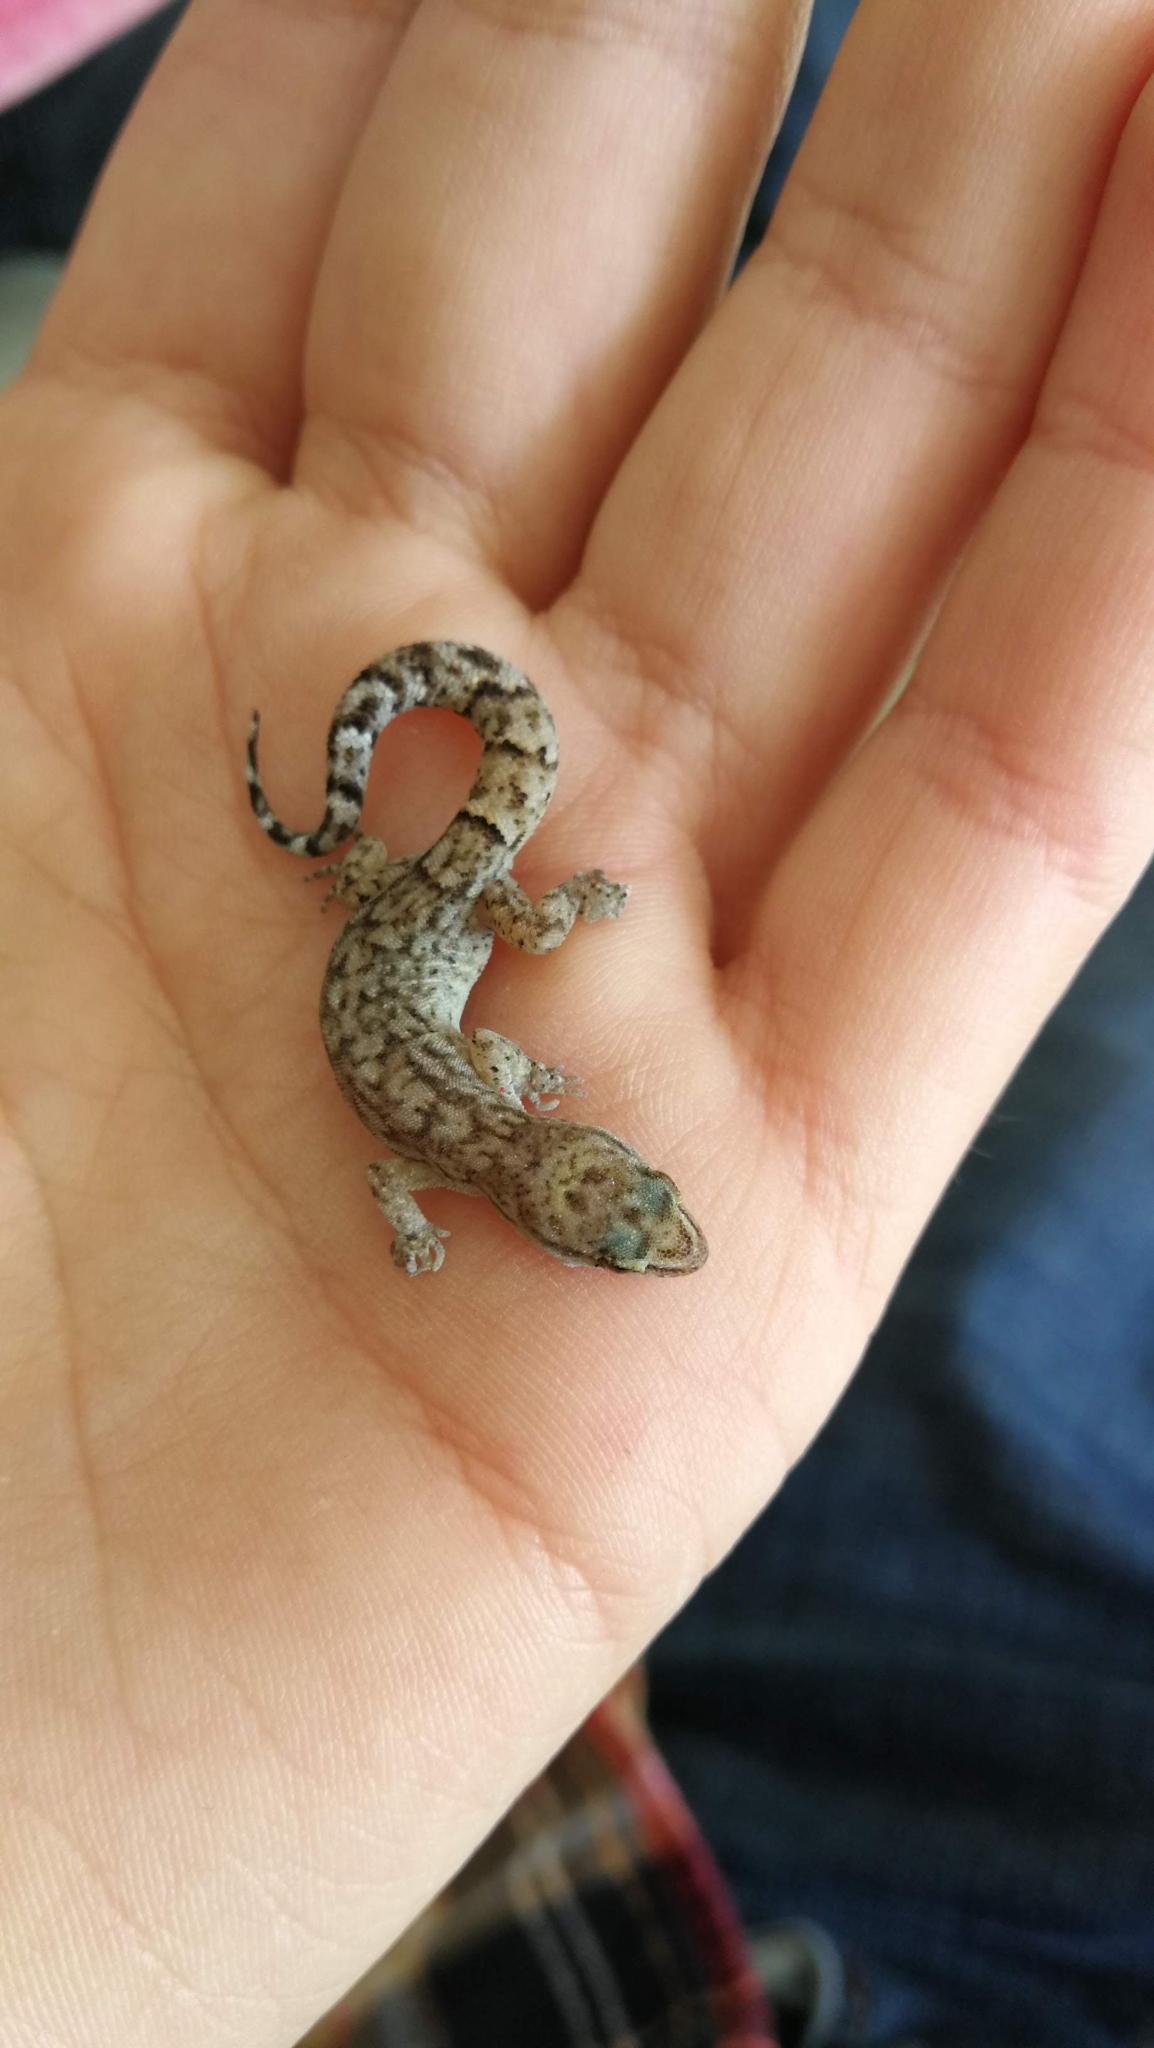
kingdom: Animalia
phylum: Chordata
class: Squamata
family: Phyllodactylidae
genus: Garthia
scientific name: Garthia gaudichaudii
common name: Chilean marked gecko
